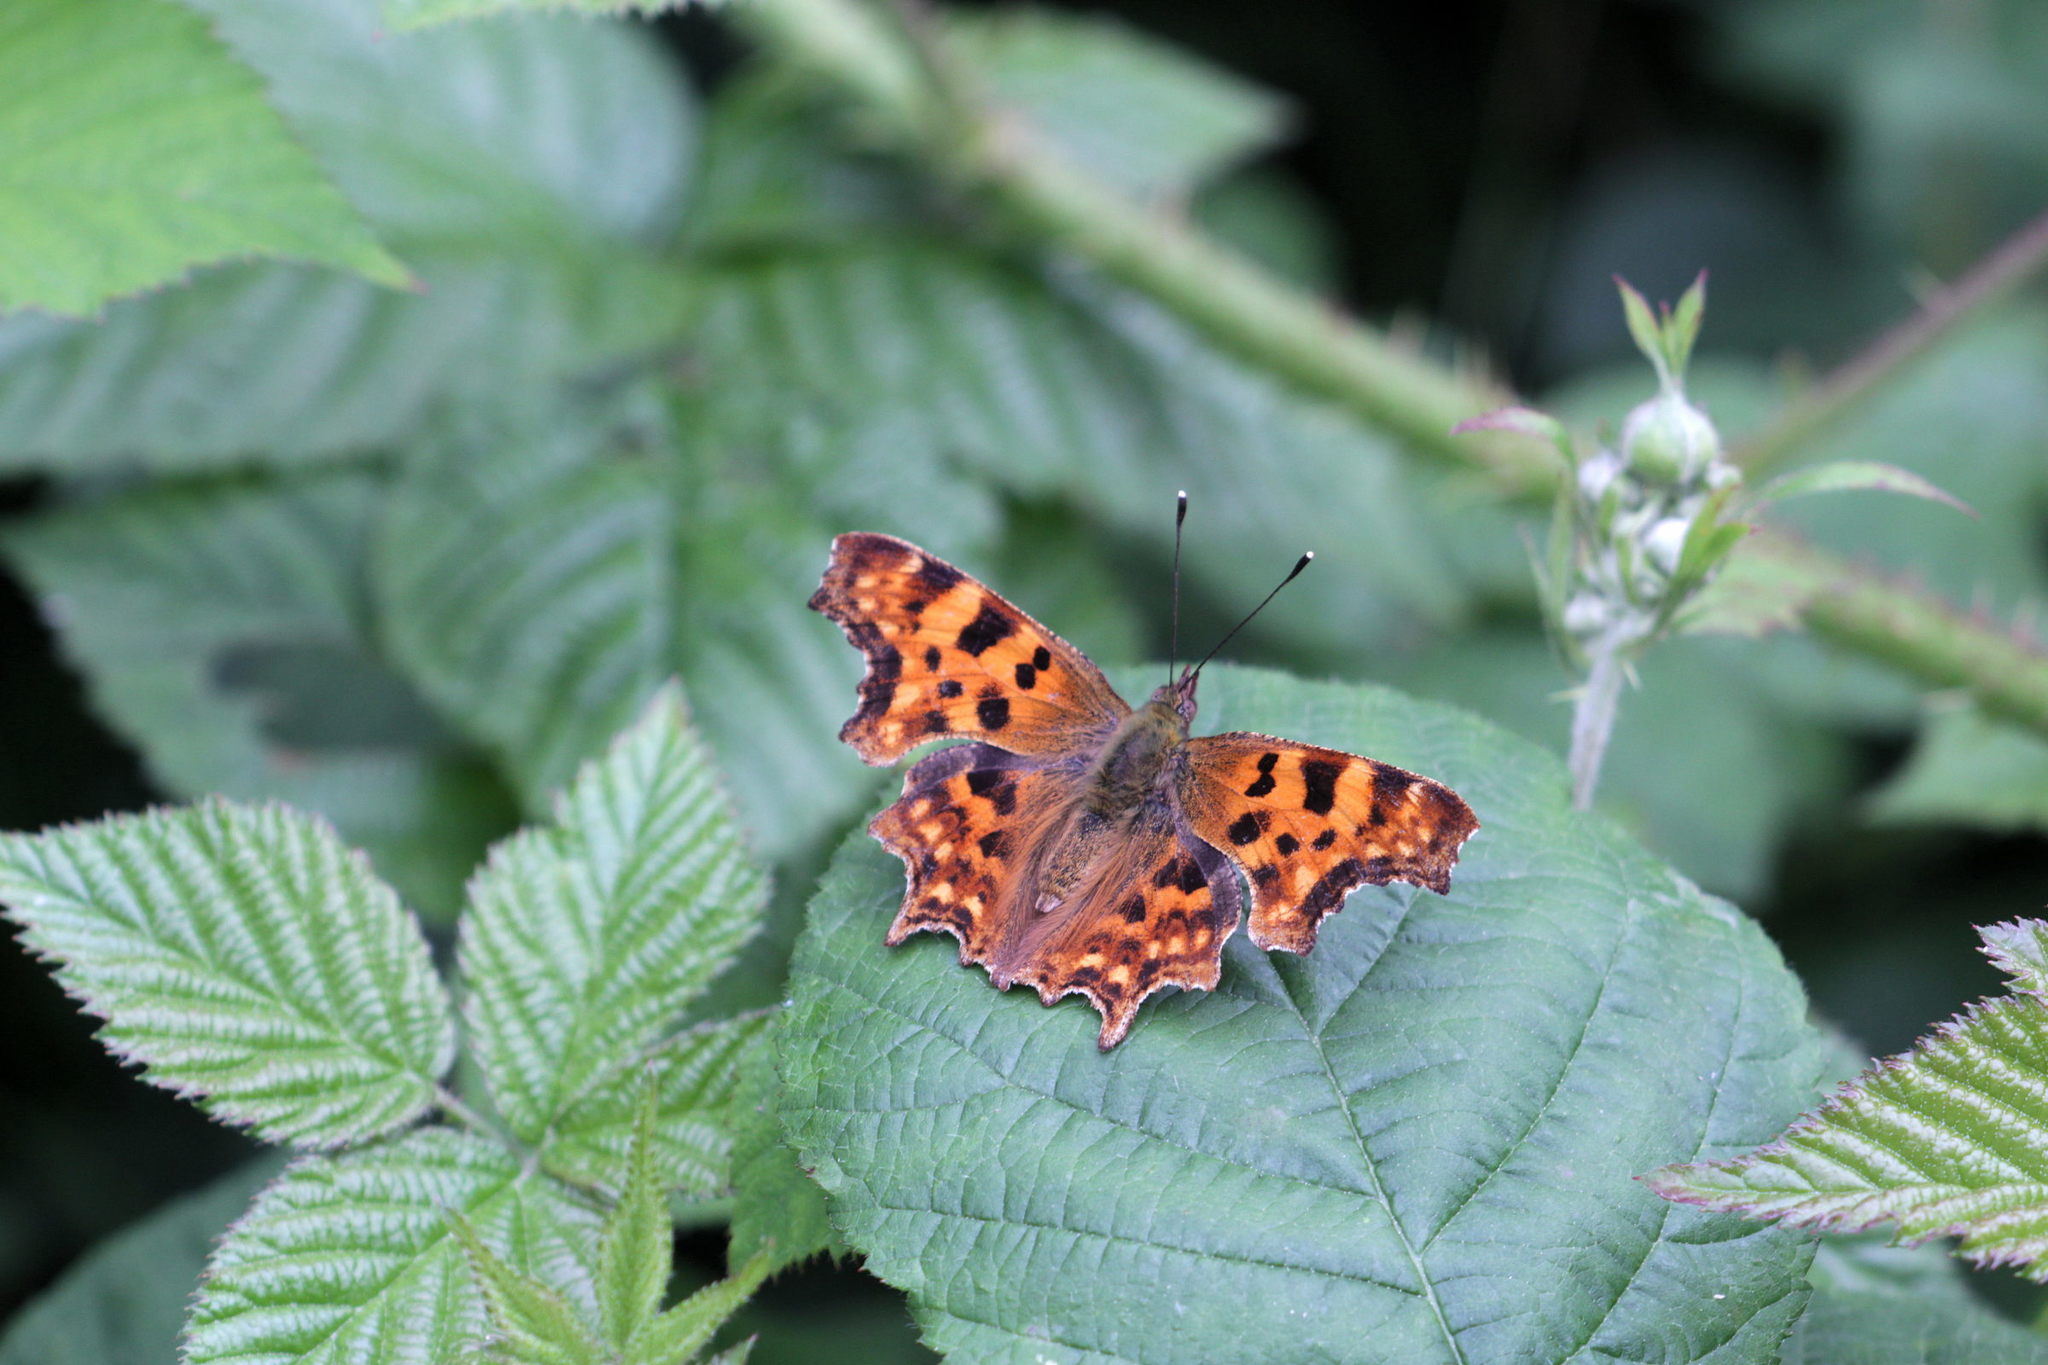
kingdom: Animalia
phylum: Arthropoda
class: Insecta
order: Lepidoptera
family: Nymphalidae
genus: Polygonia
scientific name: Polygonia c-album
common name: Comma
